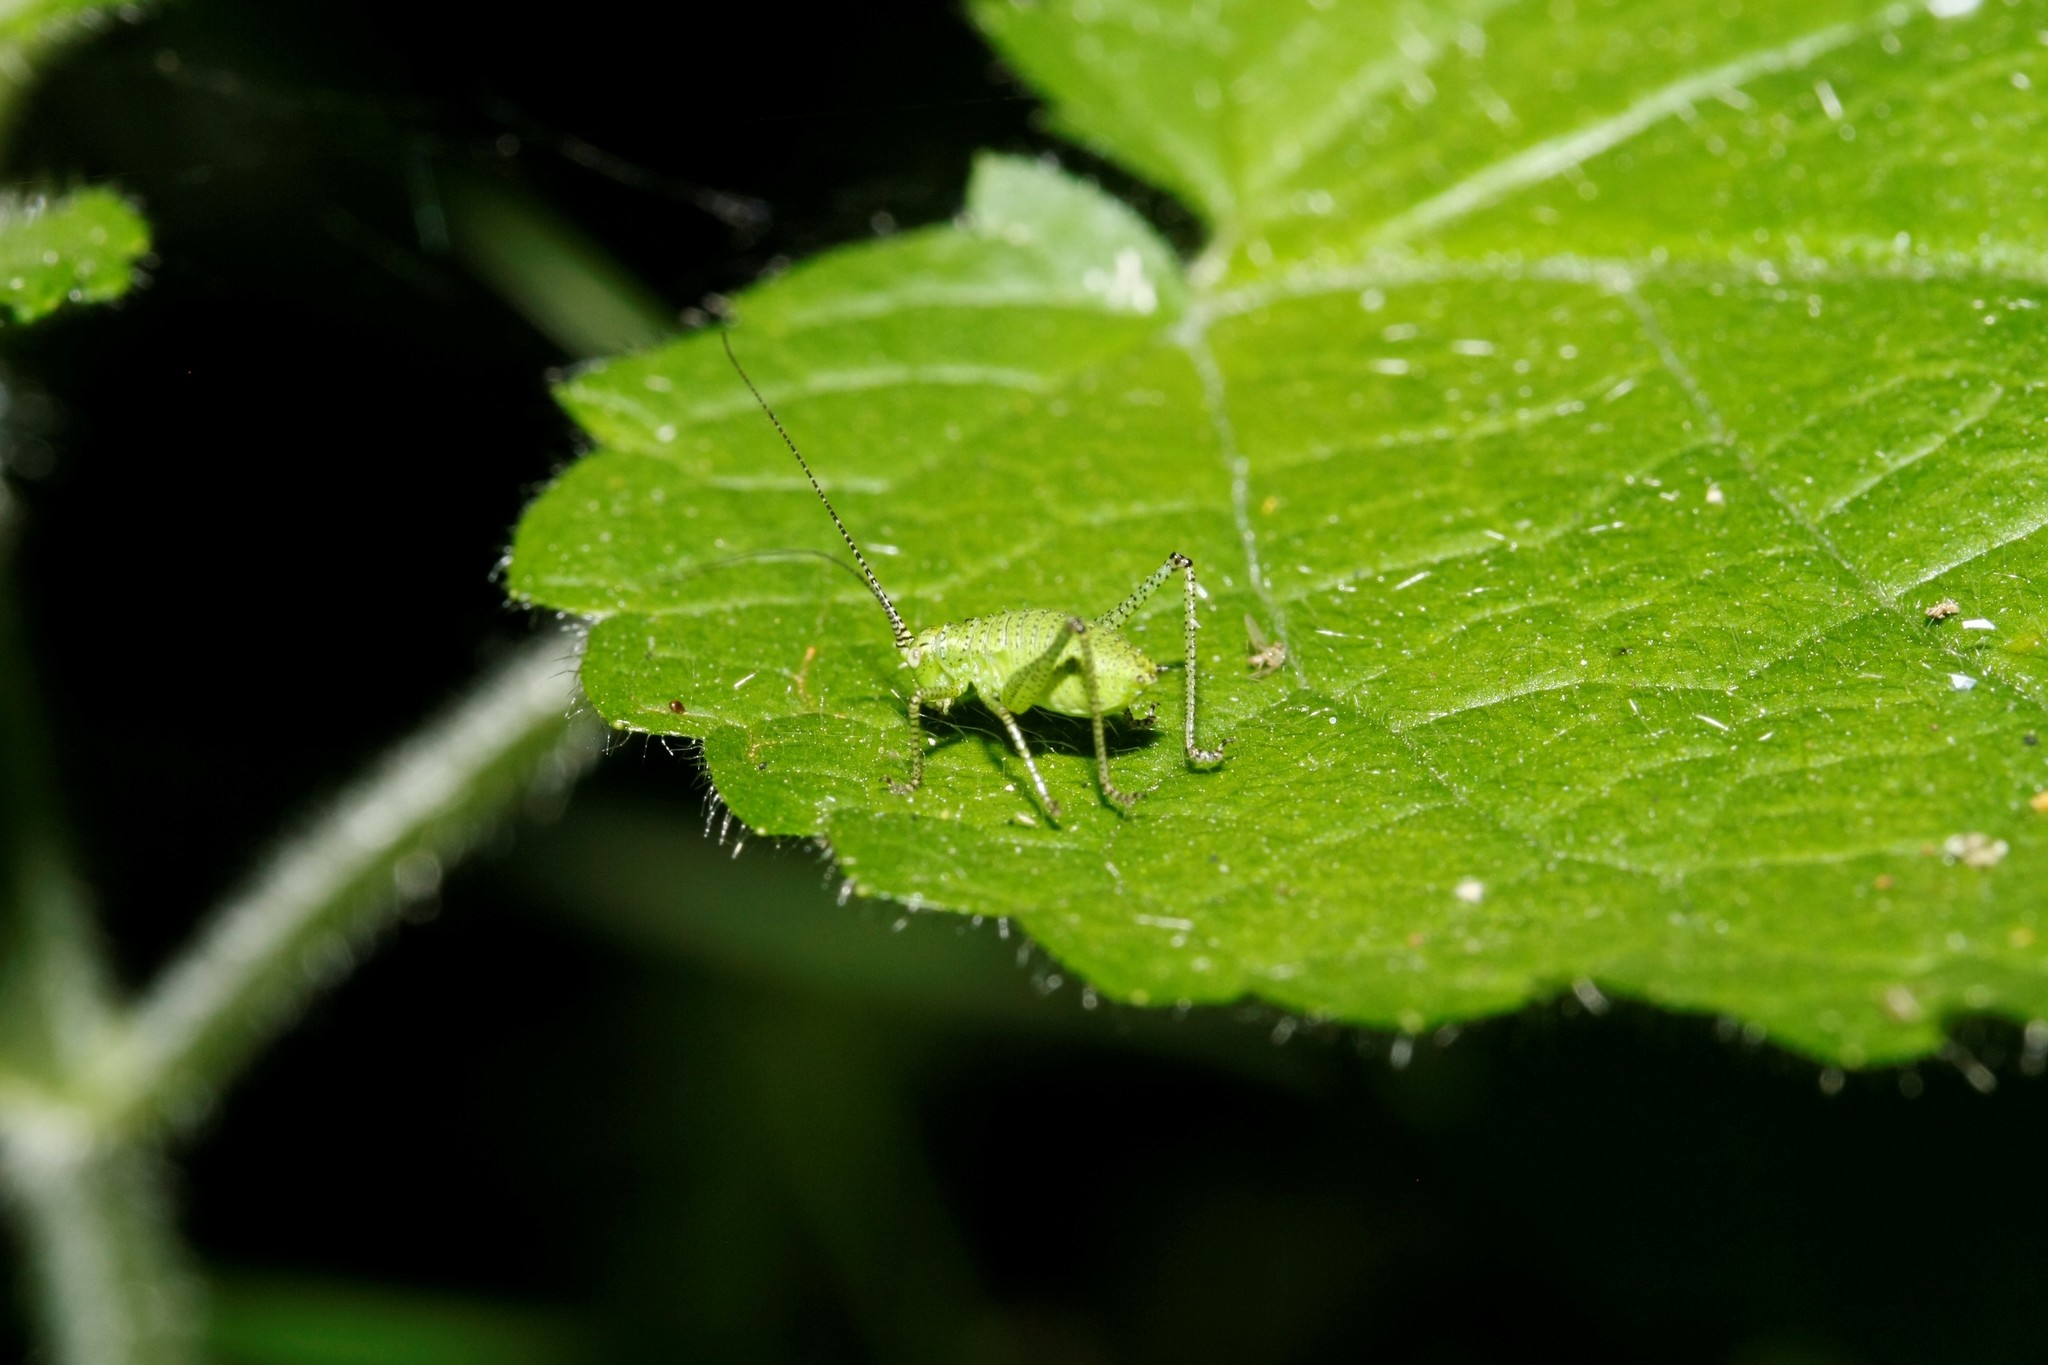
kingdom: Animalia
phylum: Arthropoda
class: Insecta
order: Orthoptera
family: Tettigoniidae
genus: Leptophyes
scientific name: Leptophyes punctatissima
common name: Speckled bush-cricket
